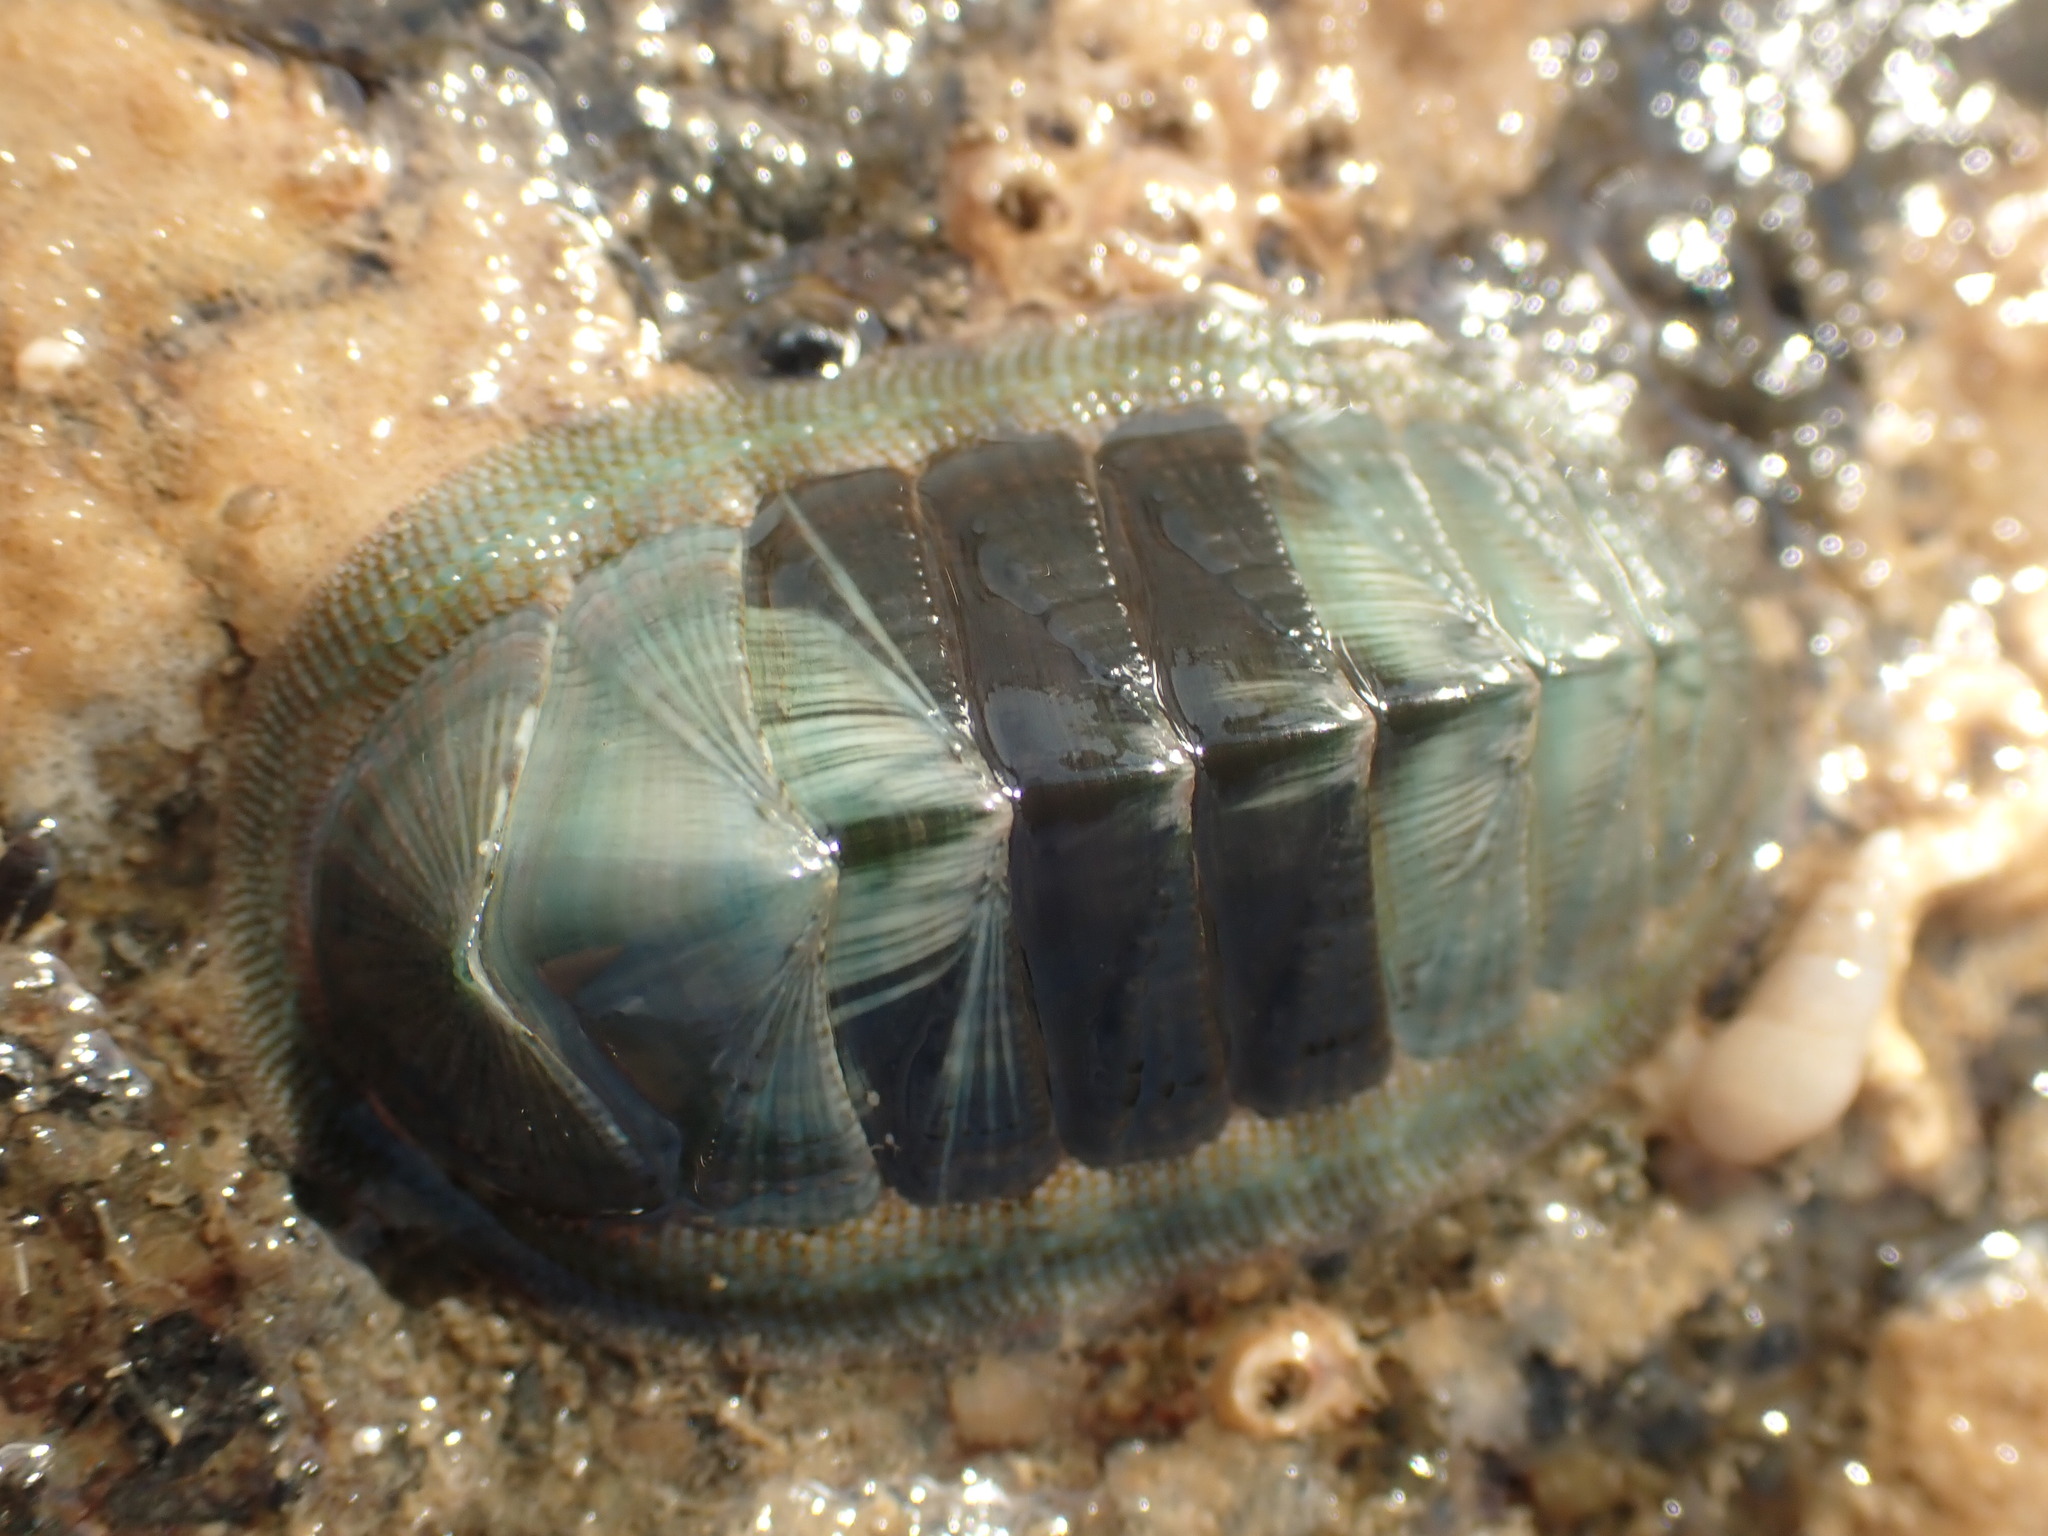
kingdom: Animalia
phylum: Mollusca
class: Polyplacophora
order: Chitonida
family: Chitonidae
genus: Rhyssoplax
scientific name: Rhyssoplax aerea
